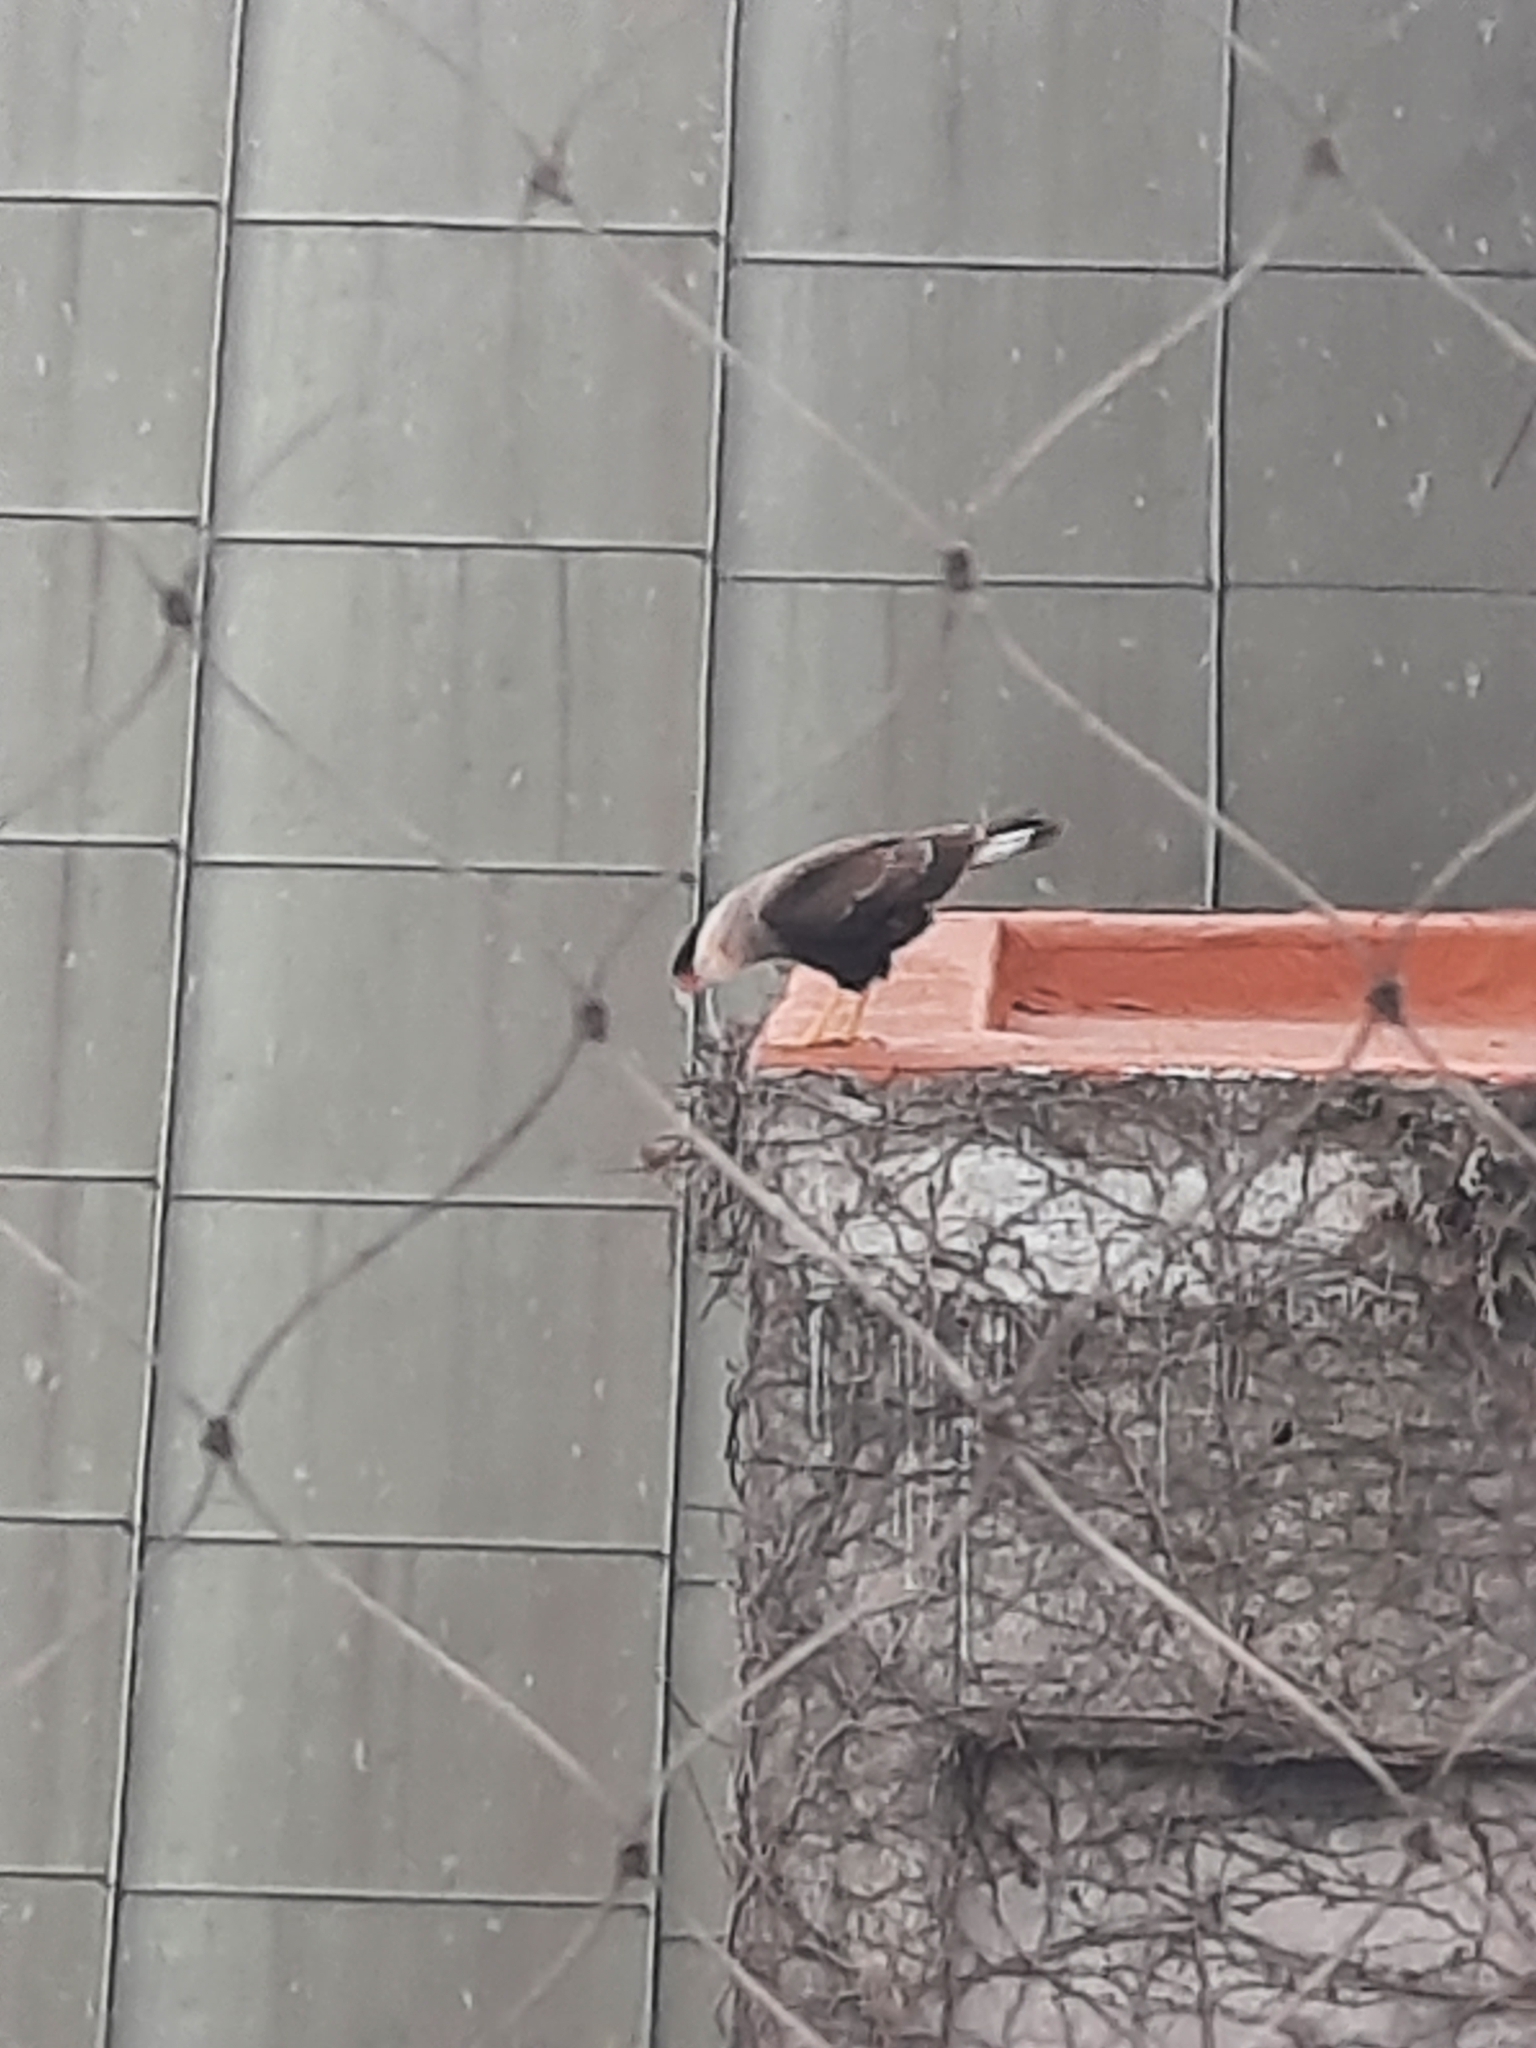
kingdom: Animalia
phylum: Chordata
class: Aves
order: Falconiformes
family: Falconidae
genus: Caracara
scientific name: Caracara plancus
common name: Southern caracara
